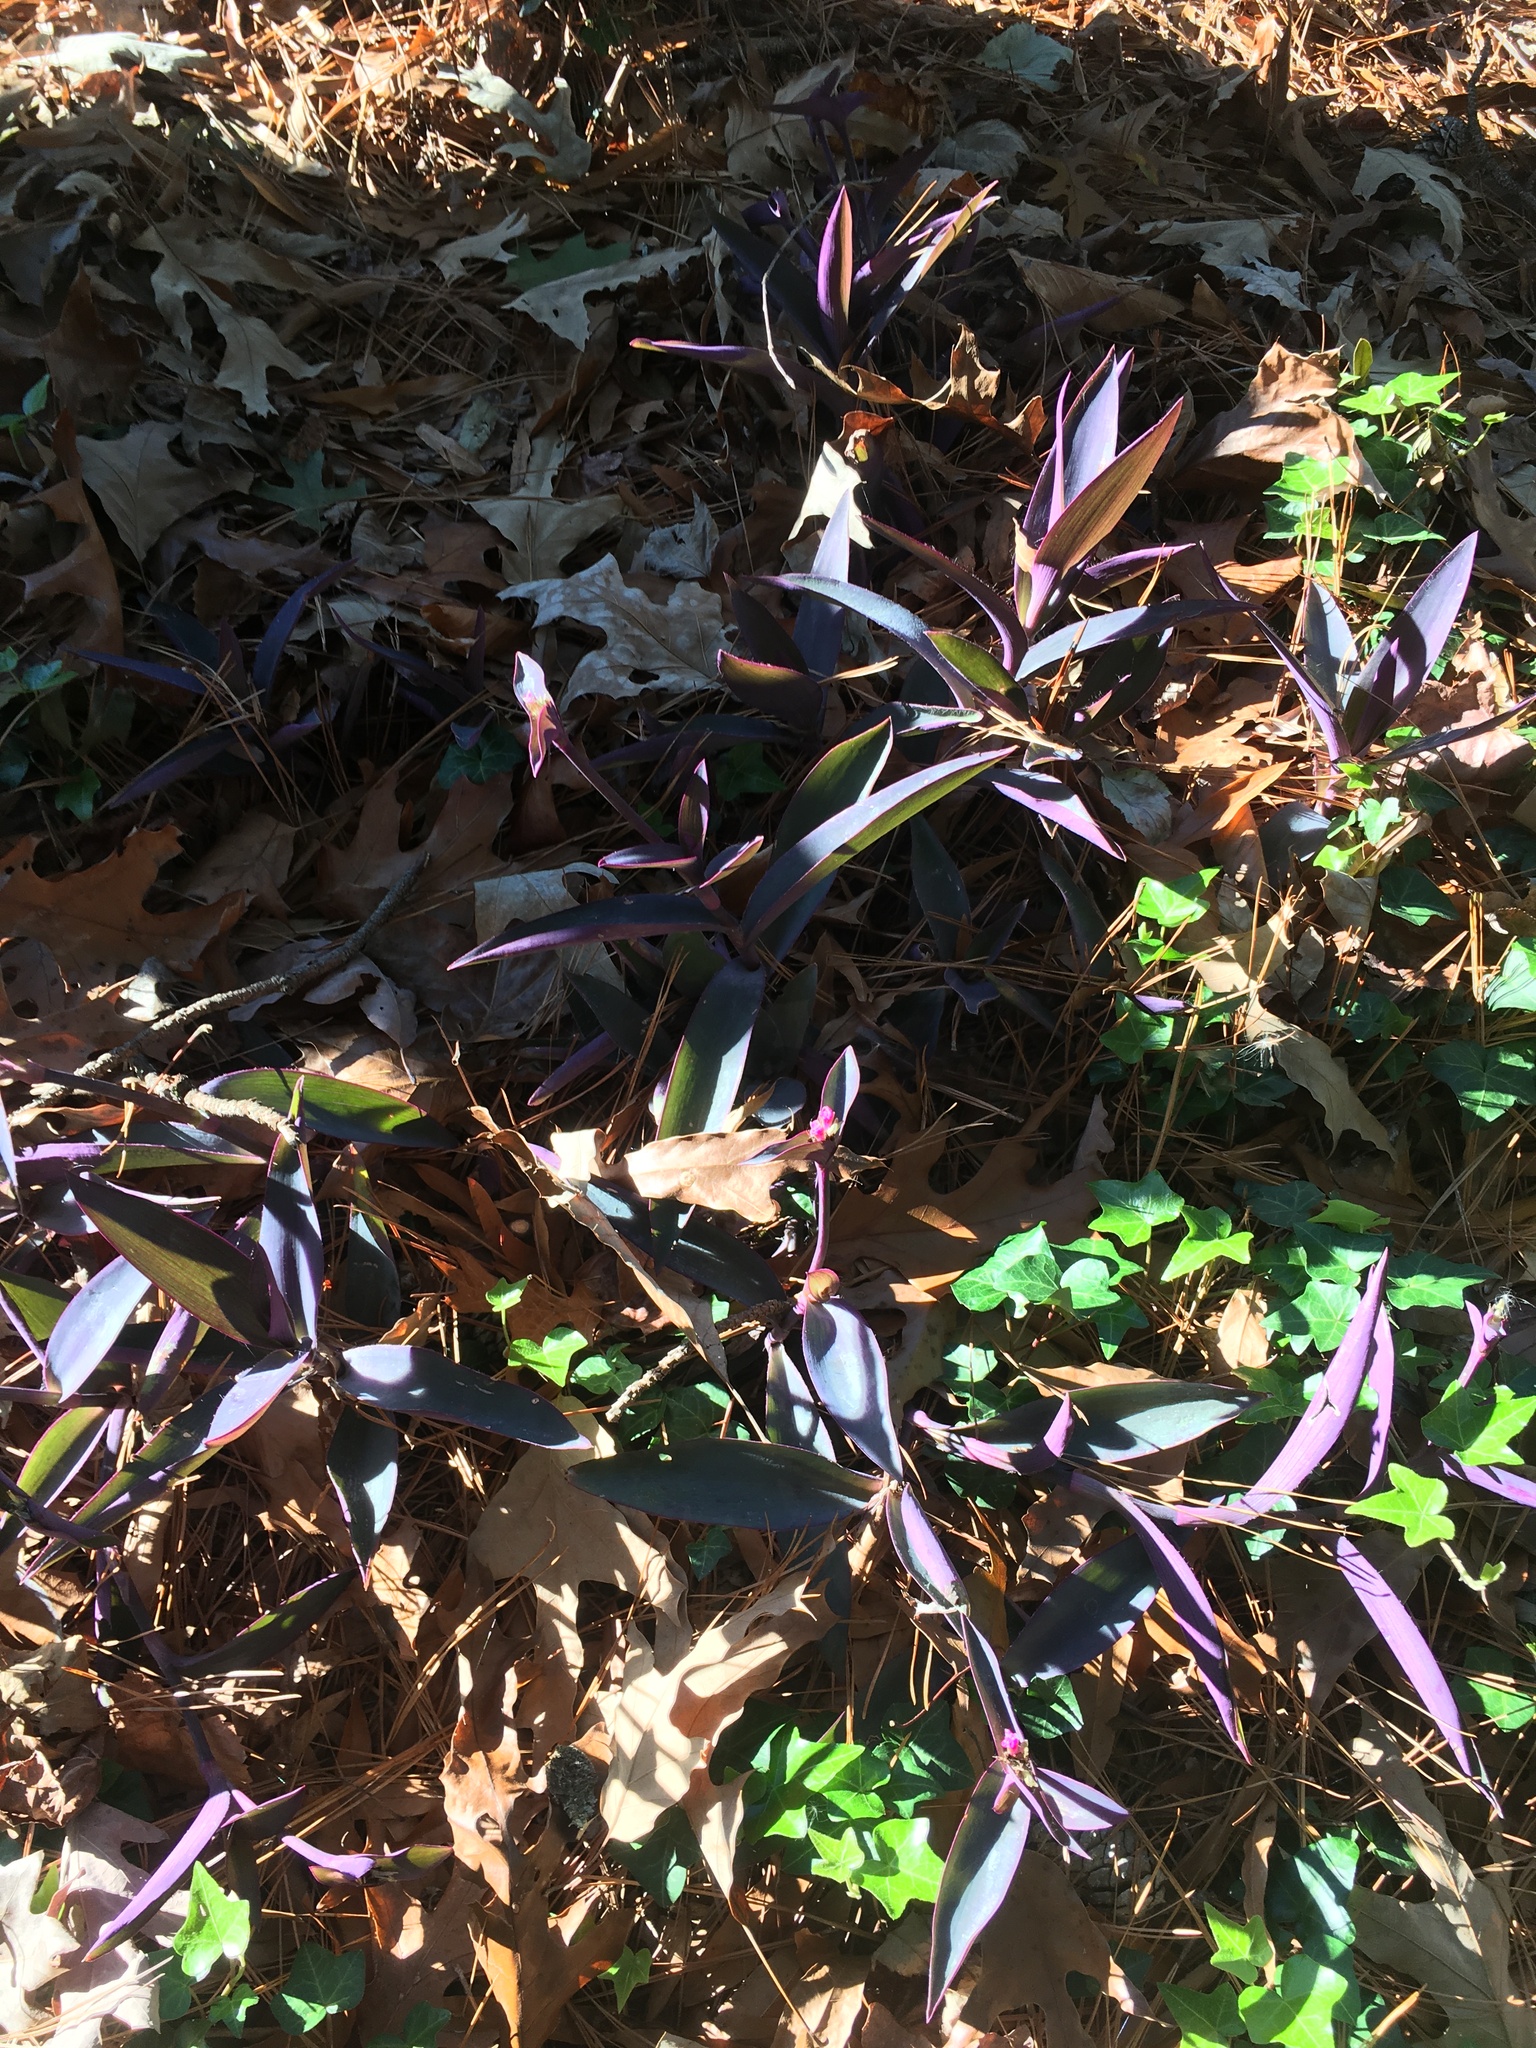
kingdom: Plantae
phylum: Tracheophyta
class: Liliopsida
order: Commelinales
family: Commelinaceae
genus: Tradescantia
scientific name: Tradescantia pallida
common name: Purpleheart
